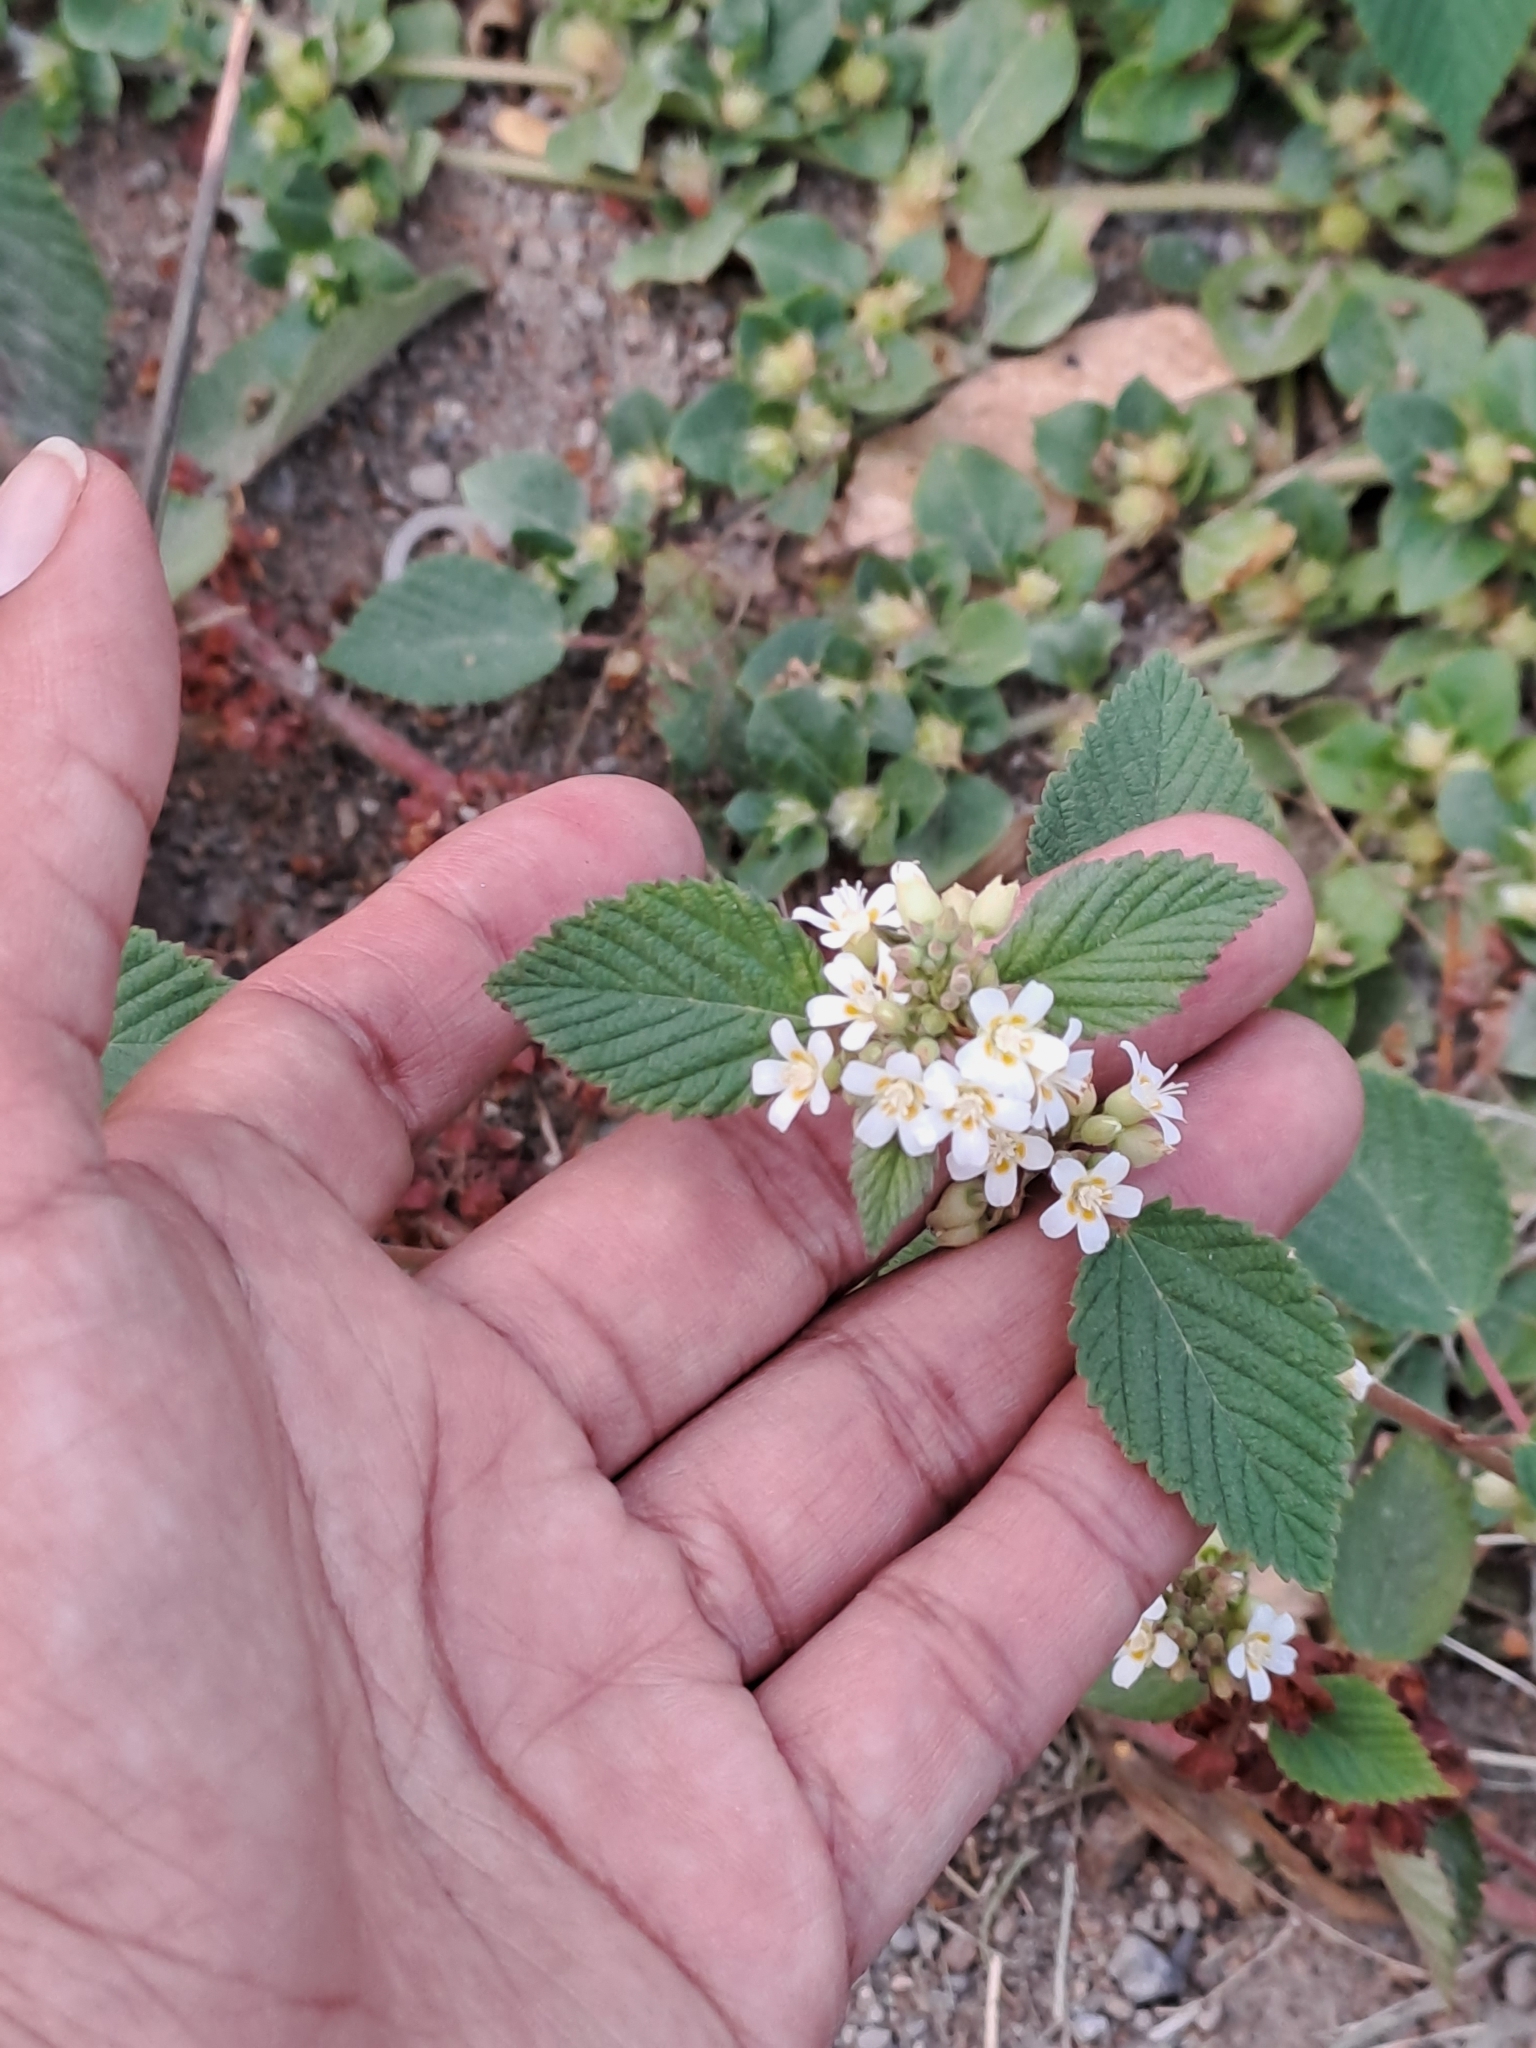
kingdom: Plantae
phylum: Tracheophyta
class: Magnoliopsida
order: Malvales
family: Malvaceae
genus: Melochia
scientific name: Melochia lupulina
